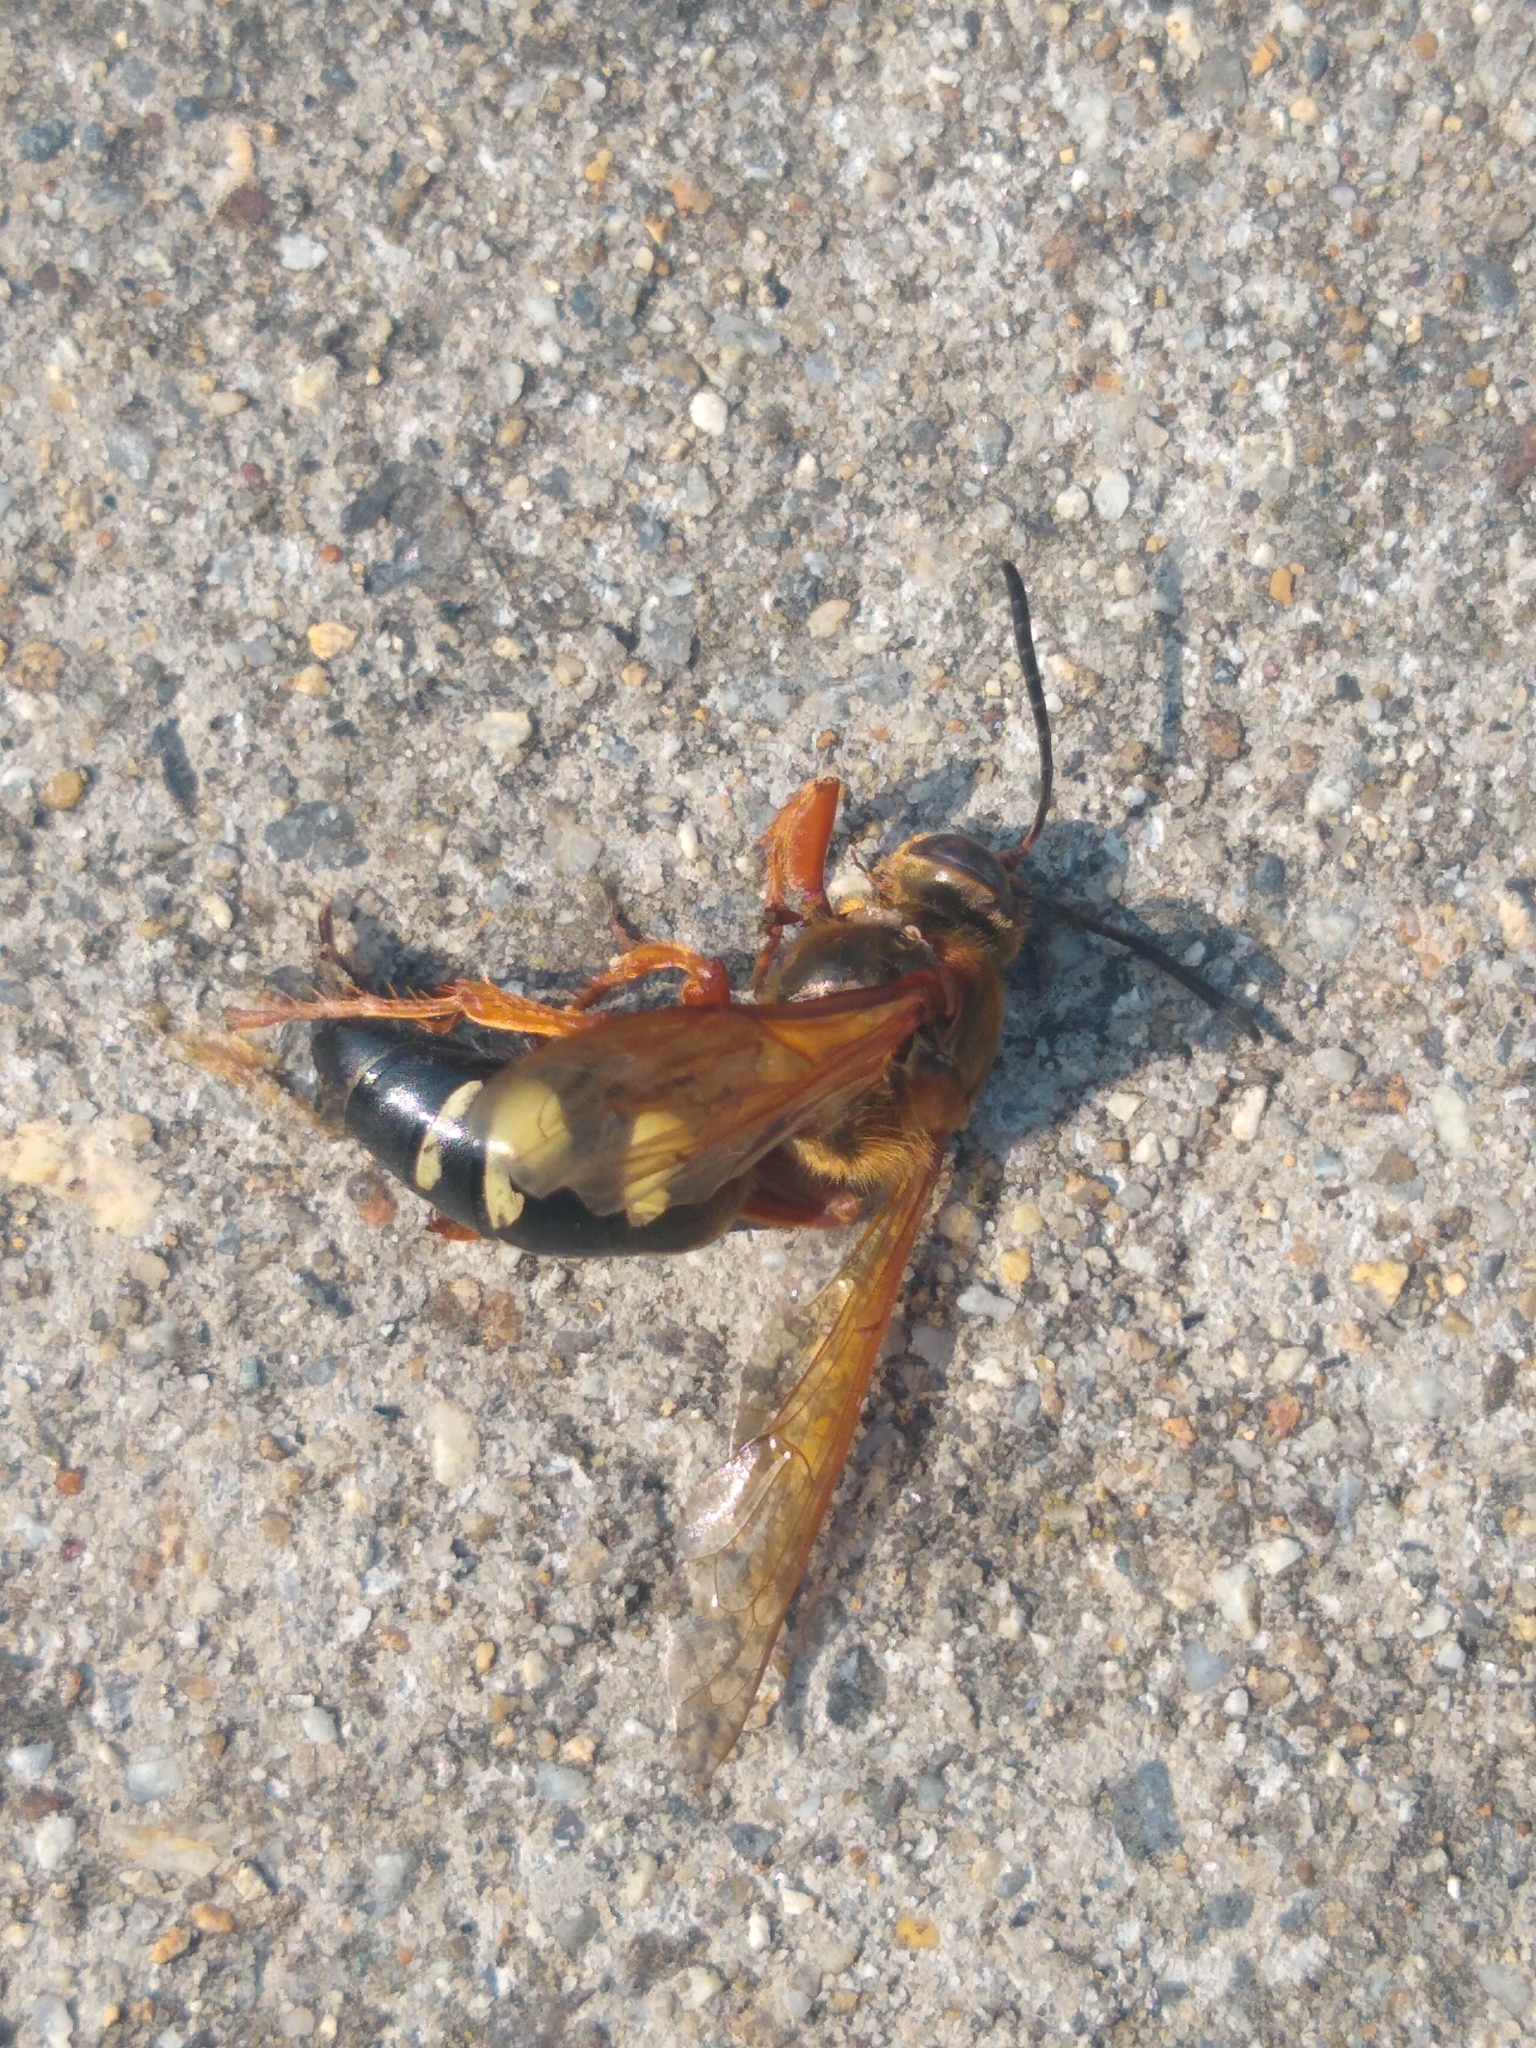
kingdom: Animalia
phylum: Arthropoda
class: Insecta
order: Hymenoptera
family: Crabronidae
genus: Sphecius
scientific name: Sphecius speciosus
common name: Cicada killer
